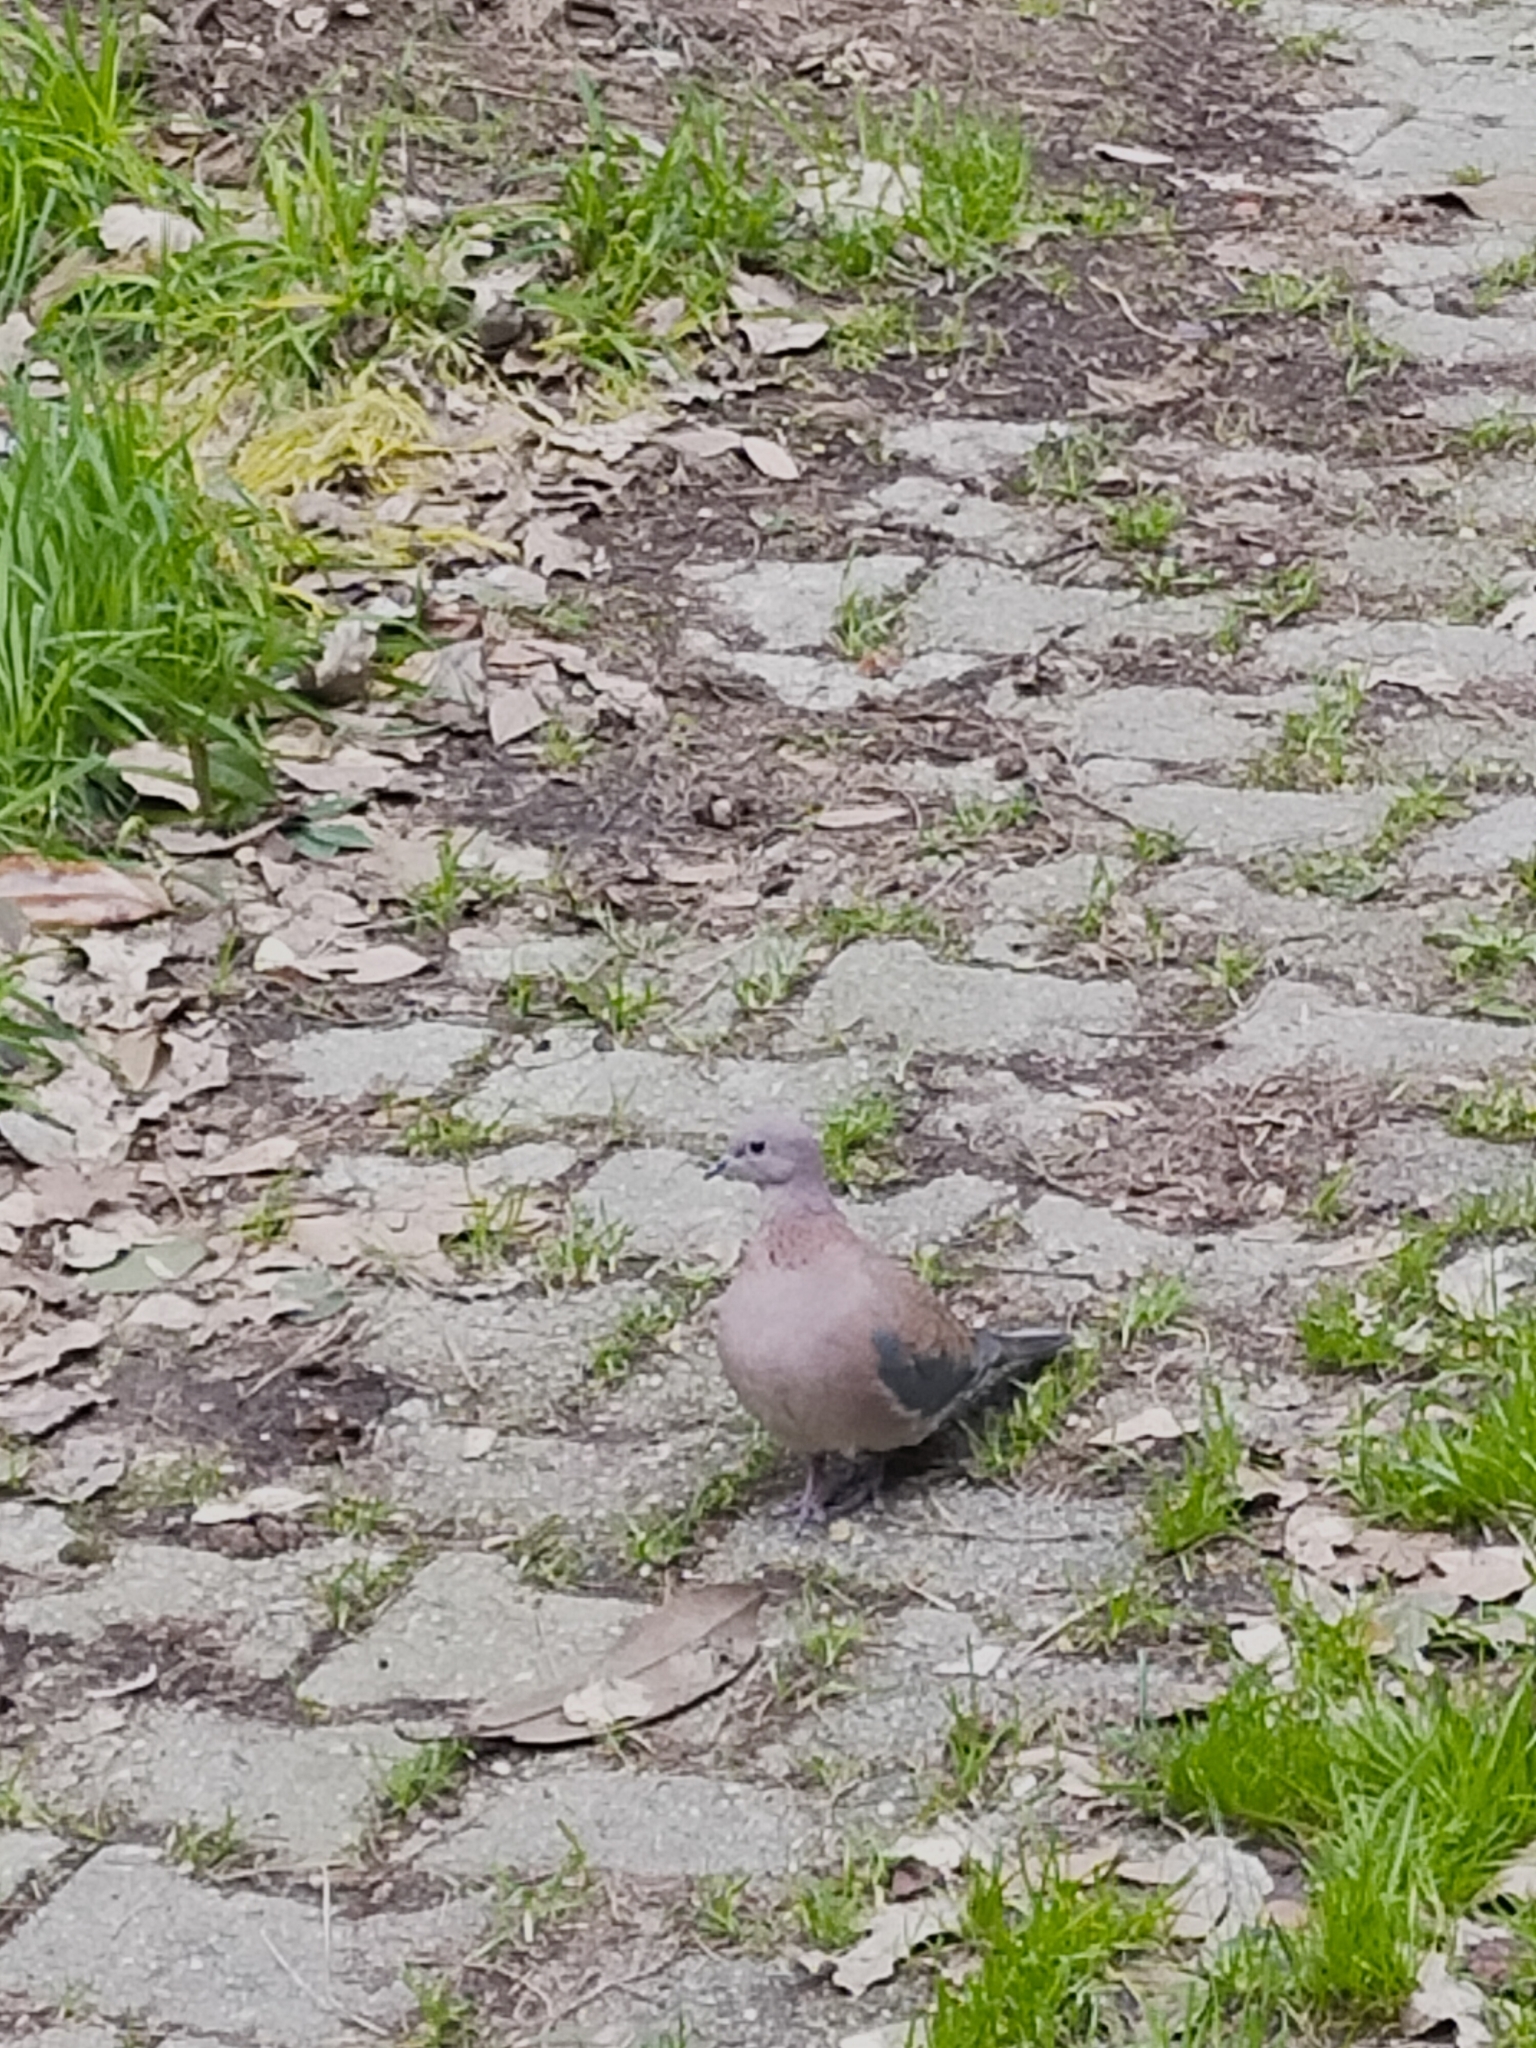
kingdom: Animalia
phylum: Chordata
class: Aves
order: Columbiformes
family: Columbidae
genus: Spilopelia
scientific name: Spilopelia senegalensis
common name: Laughing dove
